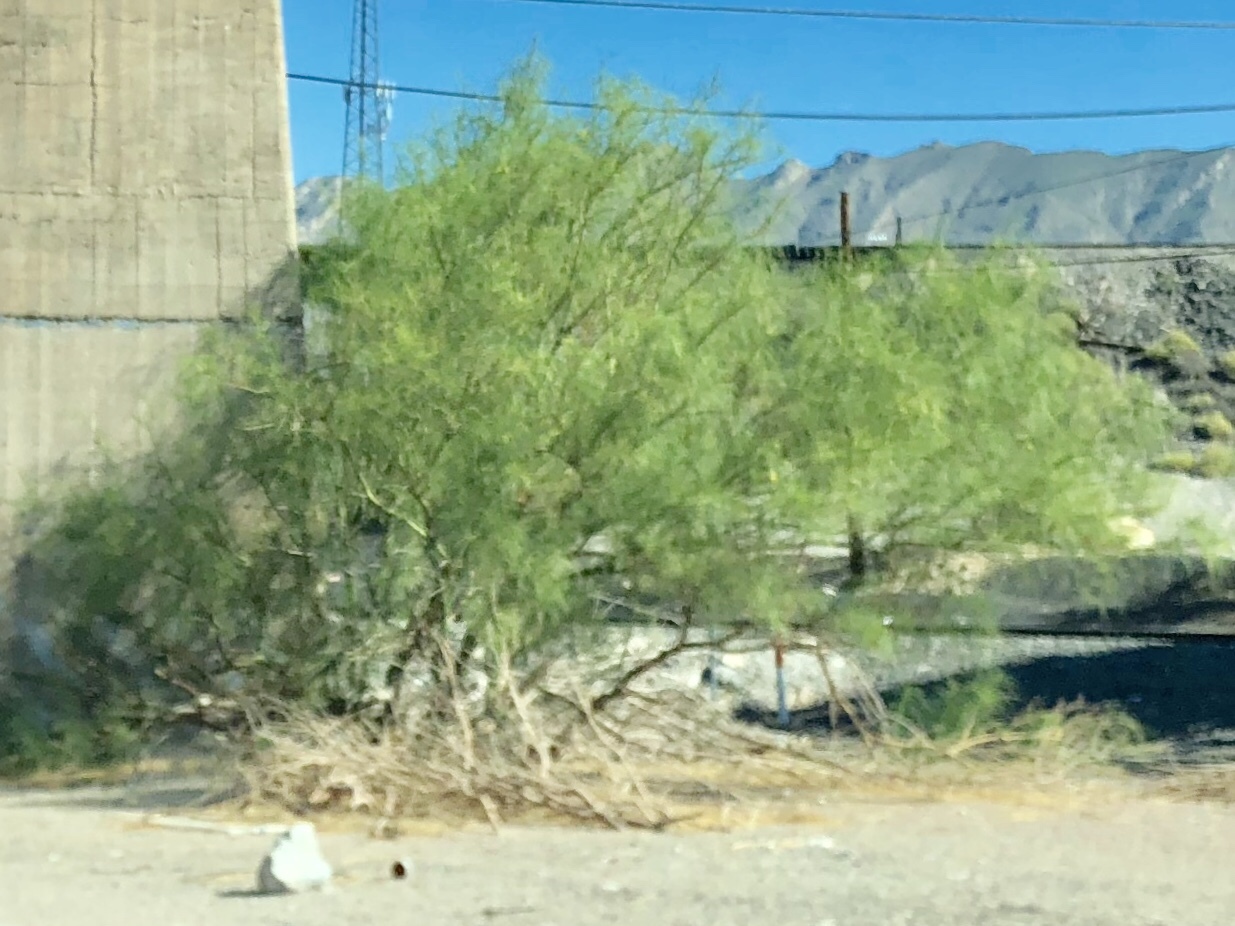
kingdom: Plantae
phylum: Tracheophyta
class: Magnoliopsida
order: Fabales
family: Fabaceae
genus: Parkinsonia
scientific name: Parkinsonia aculeata
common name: Jerusalem thorn
